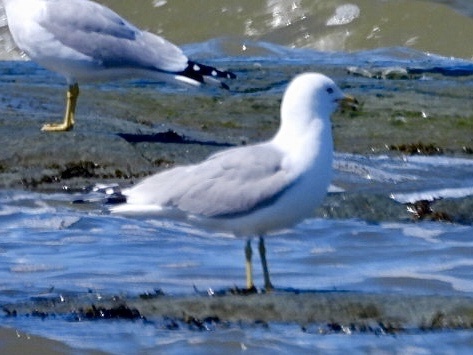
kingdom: Animalia
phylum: Chordata
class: Aves
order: Charadriiformes
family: Laridae
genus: Larus
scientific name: Larus delawarensis
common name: Ring-billed gull
